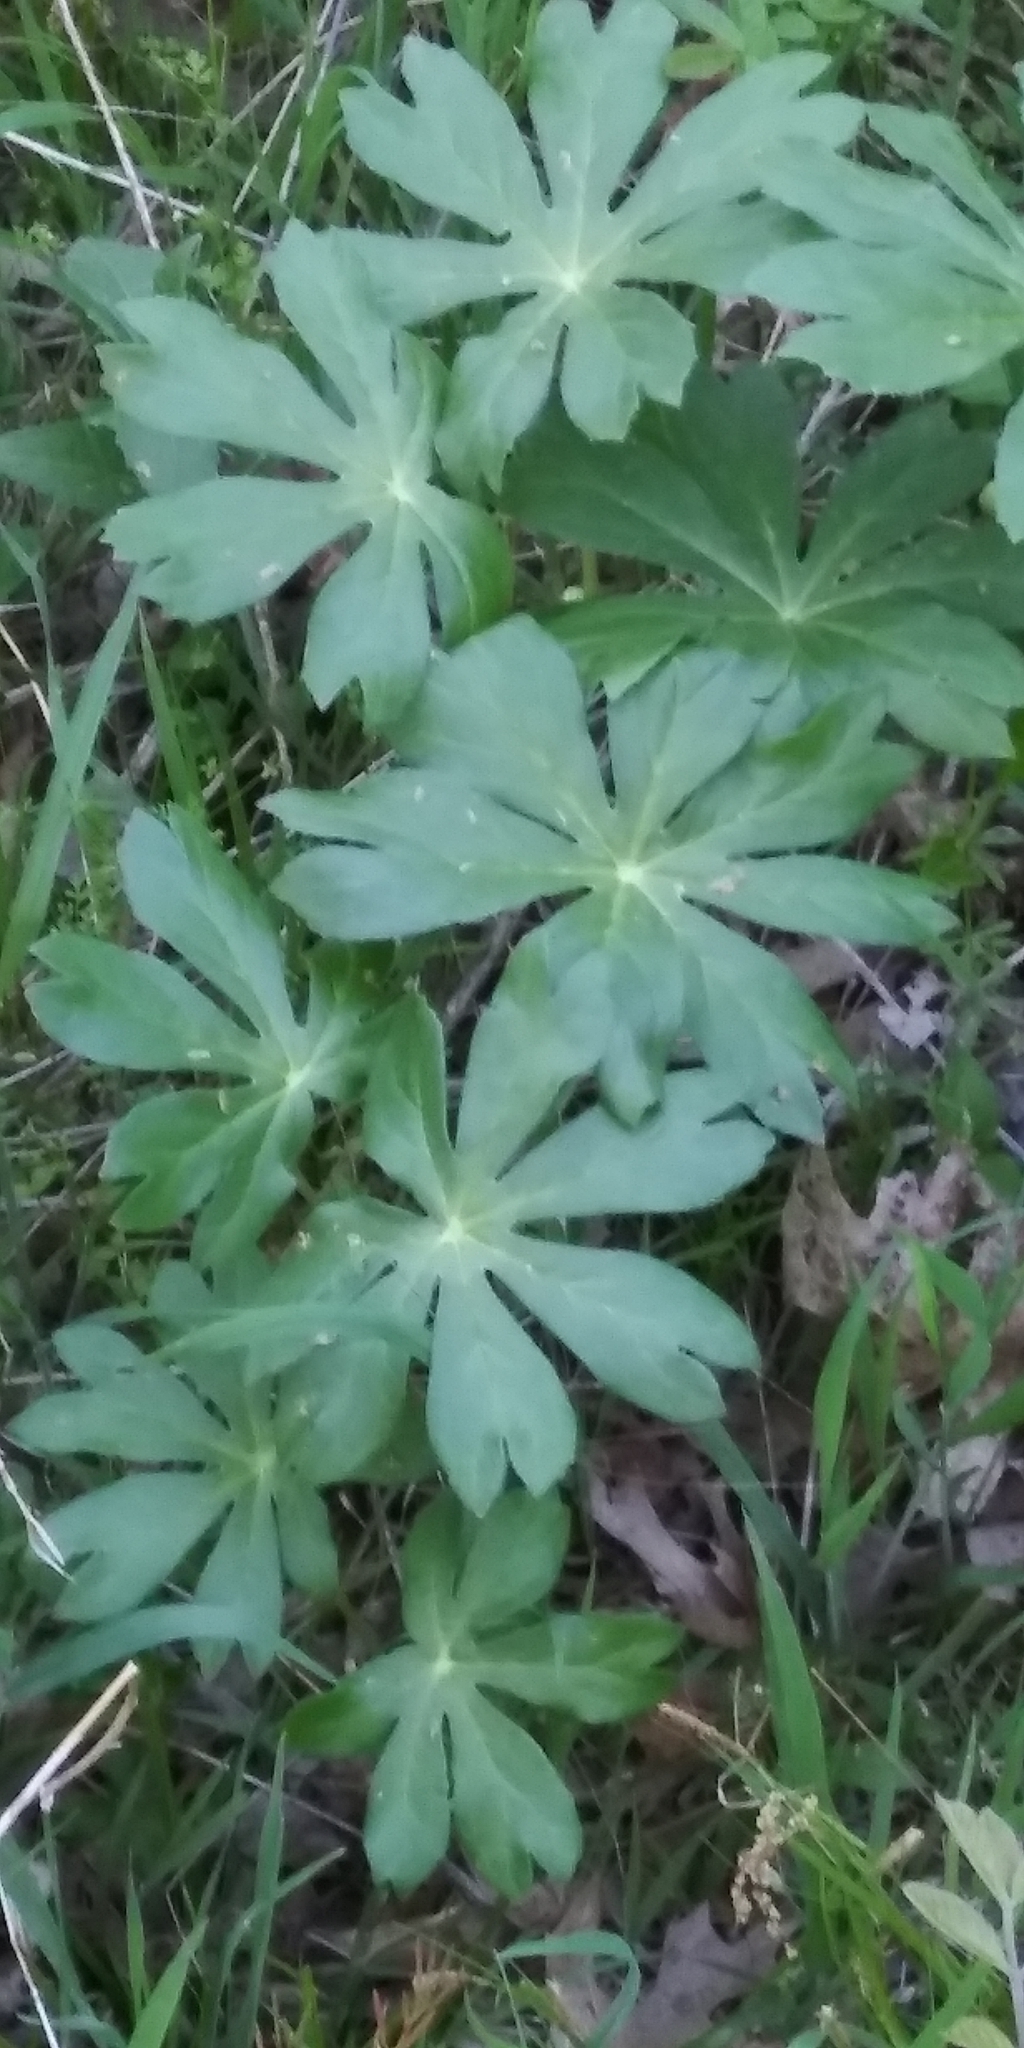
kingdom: Plantae
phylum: Tracheophyta
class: Magnoliopsida
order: Ranunculales
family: Berberidaceae
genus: Podophyllum
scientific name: Podophyllum peltatum
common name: Wild mandrake
